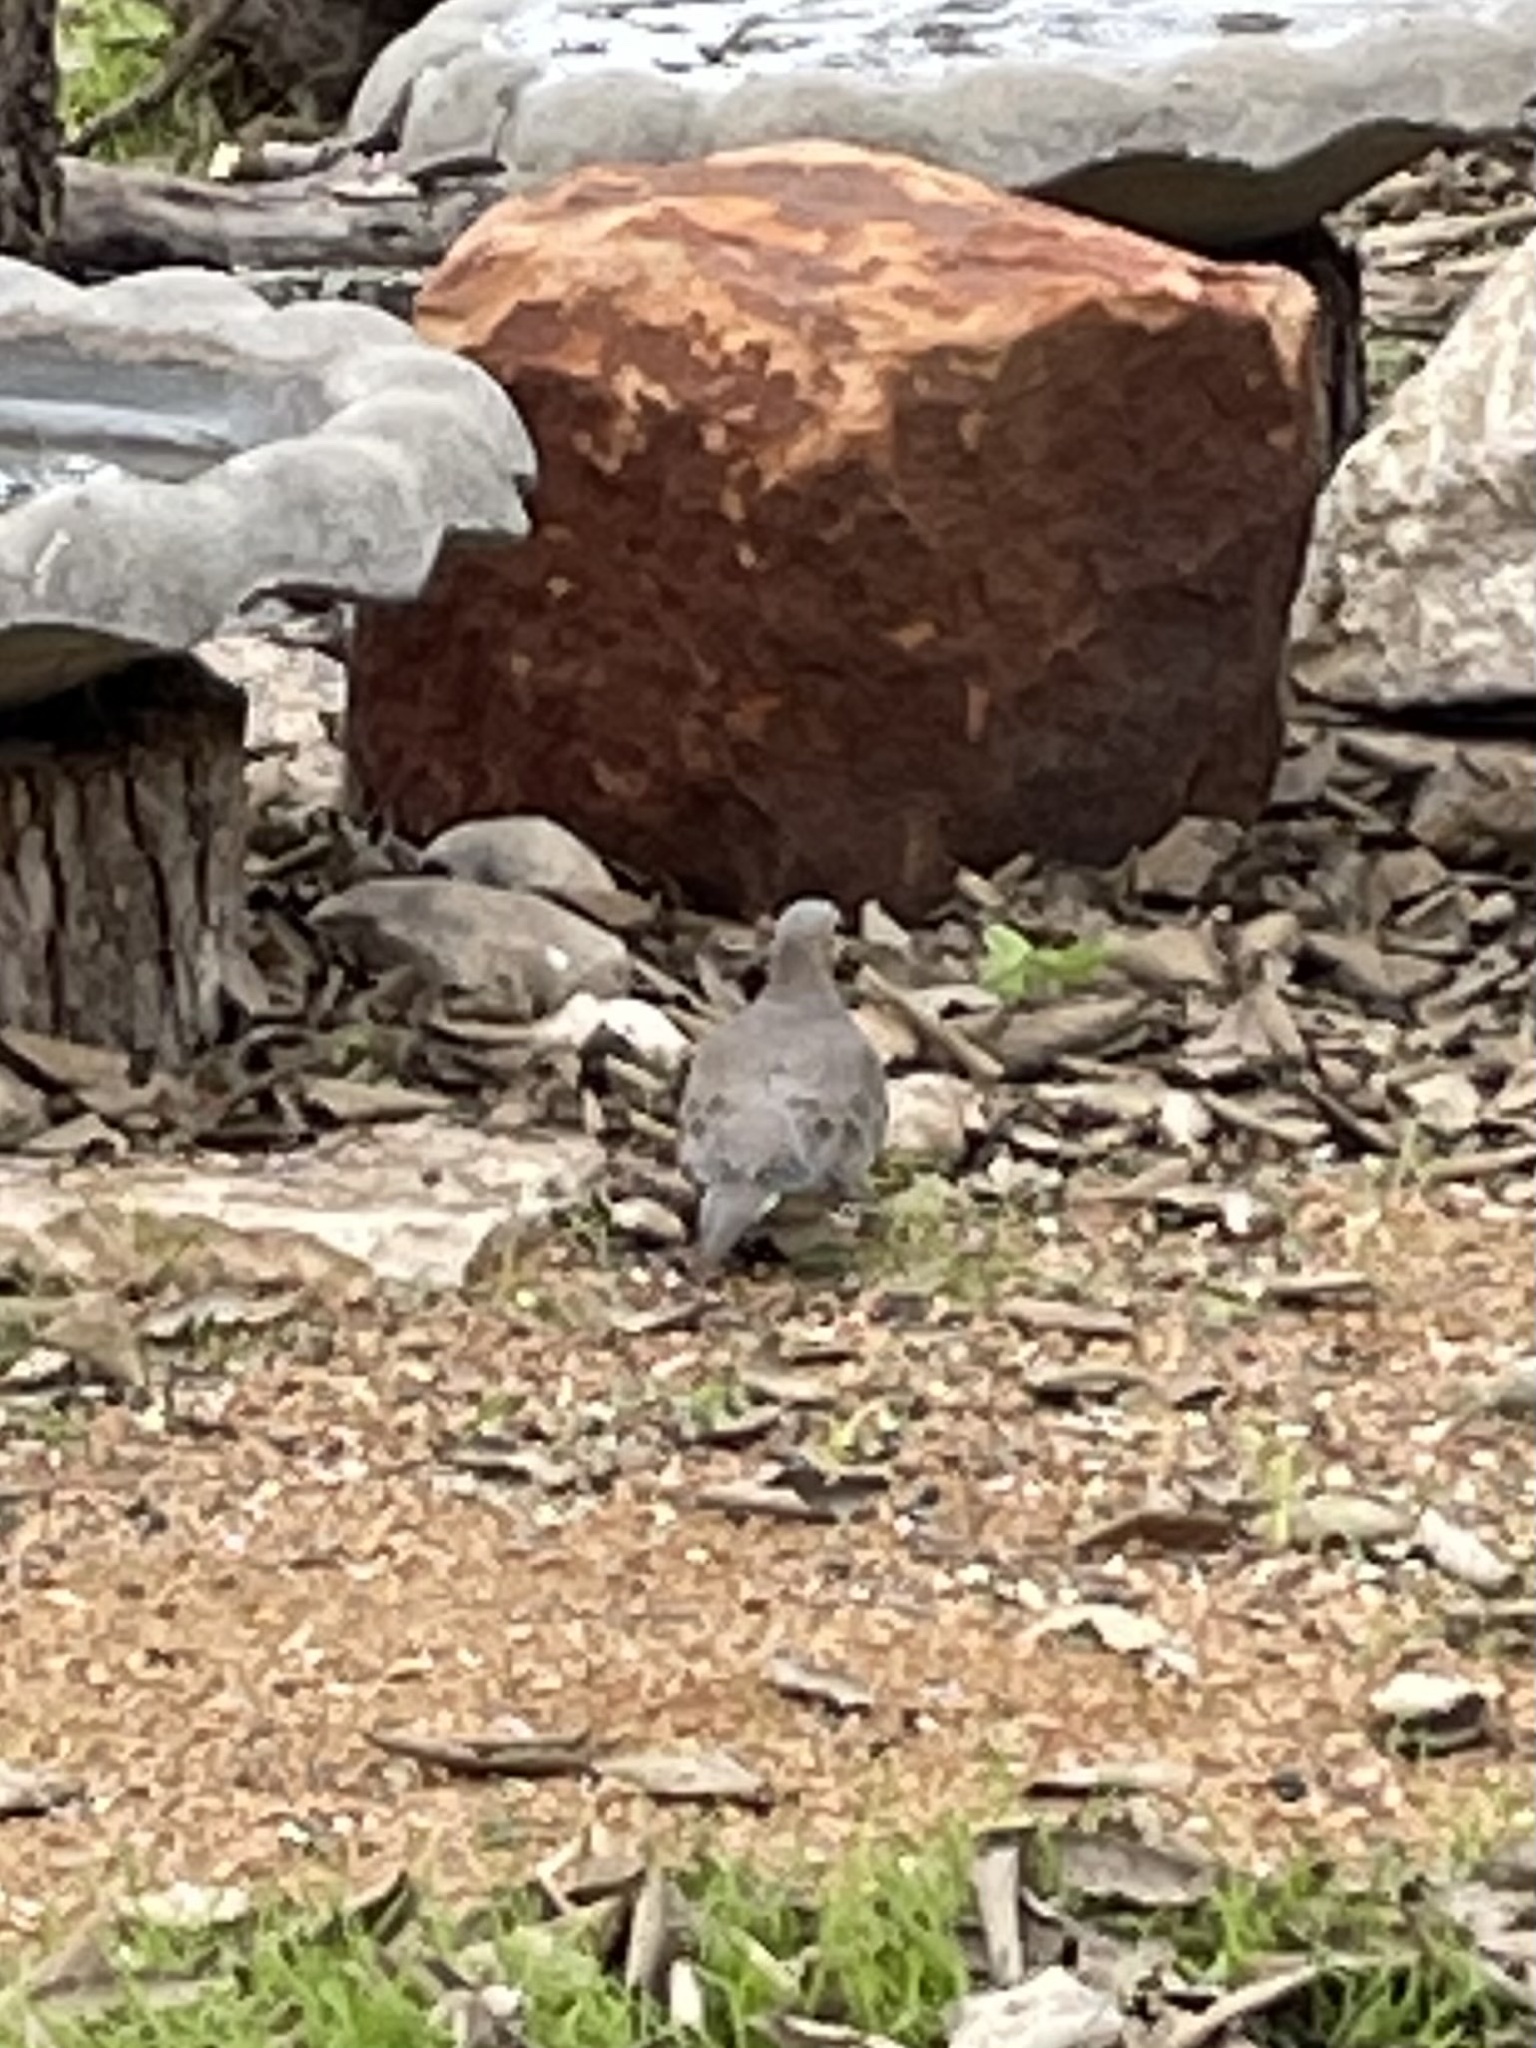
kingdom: Animalia
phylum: Chordata
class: Aves
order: Columbiformes
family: Columbidae
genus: Zenaida
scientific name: Zenaida macroura
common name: Mourning dove
